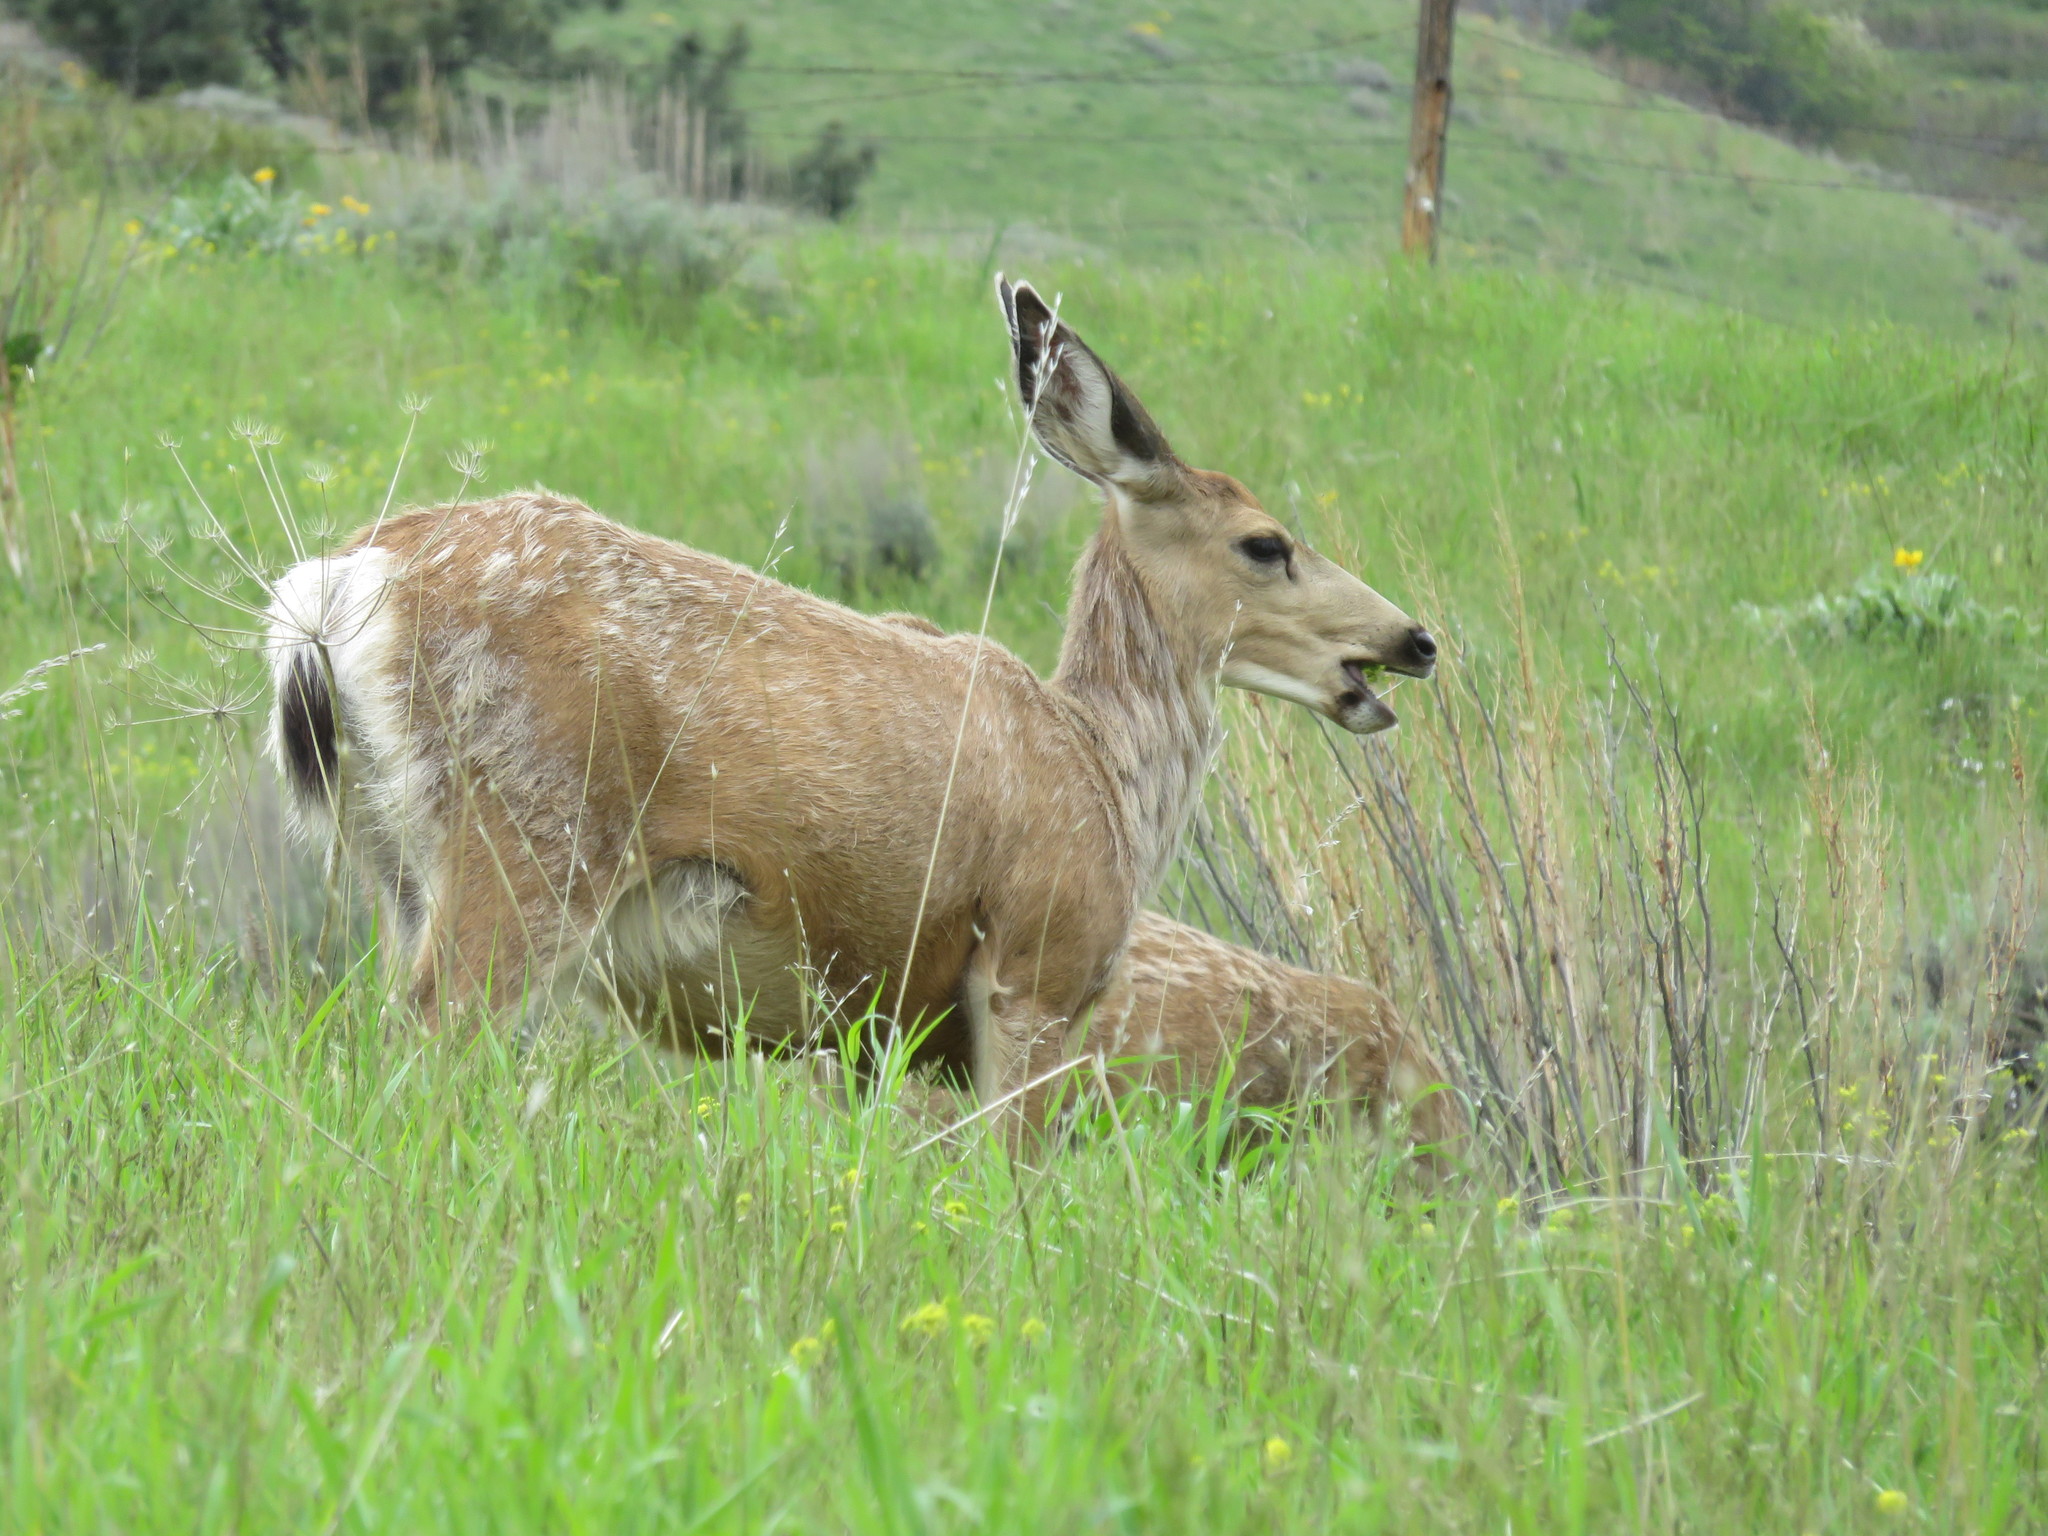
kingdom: Animalia
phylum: Chordata
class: Mammalia
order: Artiodactyla
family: Cervidae
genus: Odocoileus
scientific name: Odocoileus hemionus
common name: Mule deer
